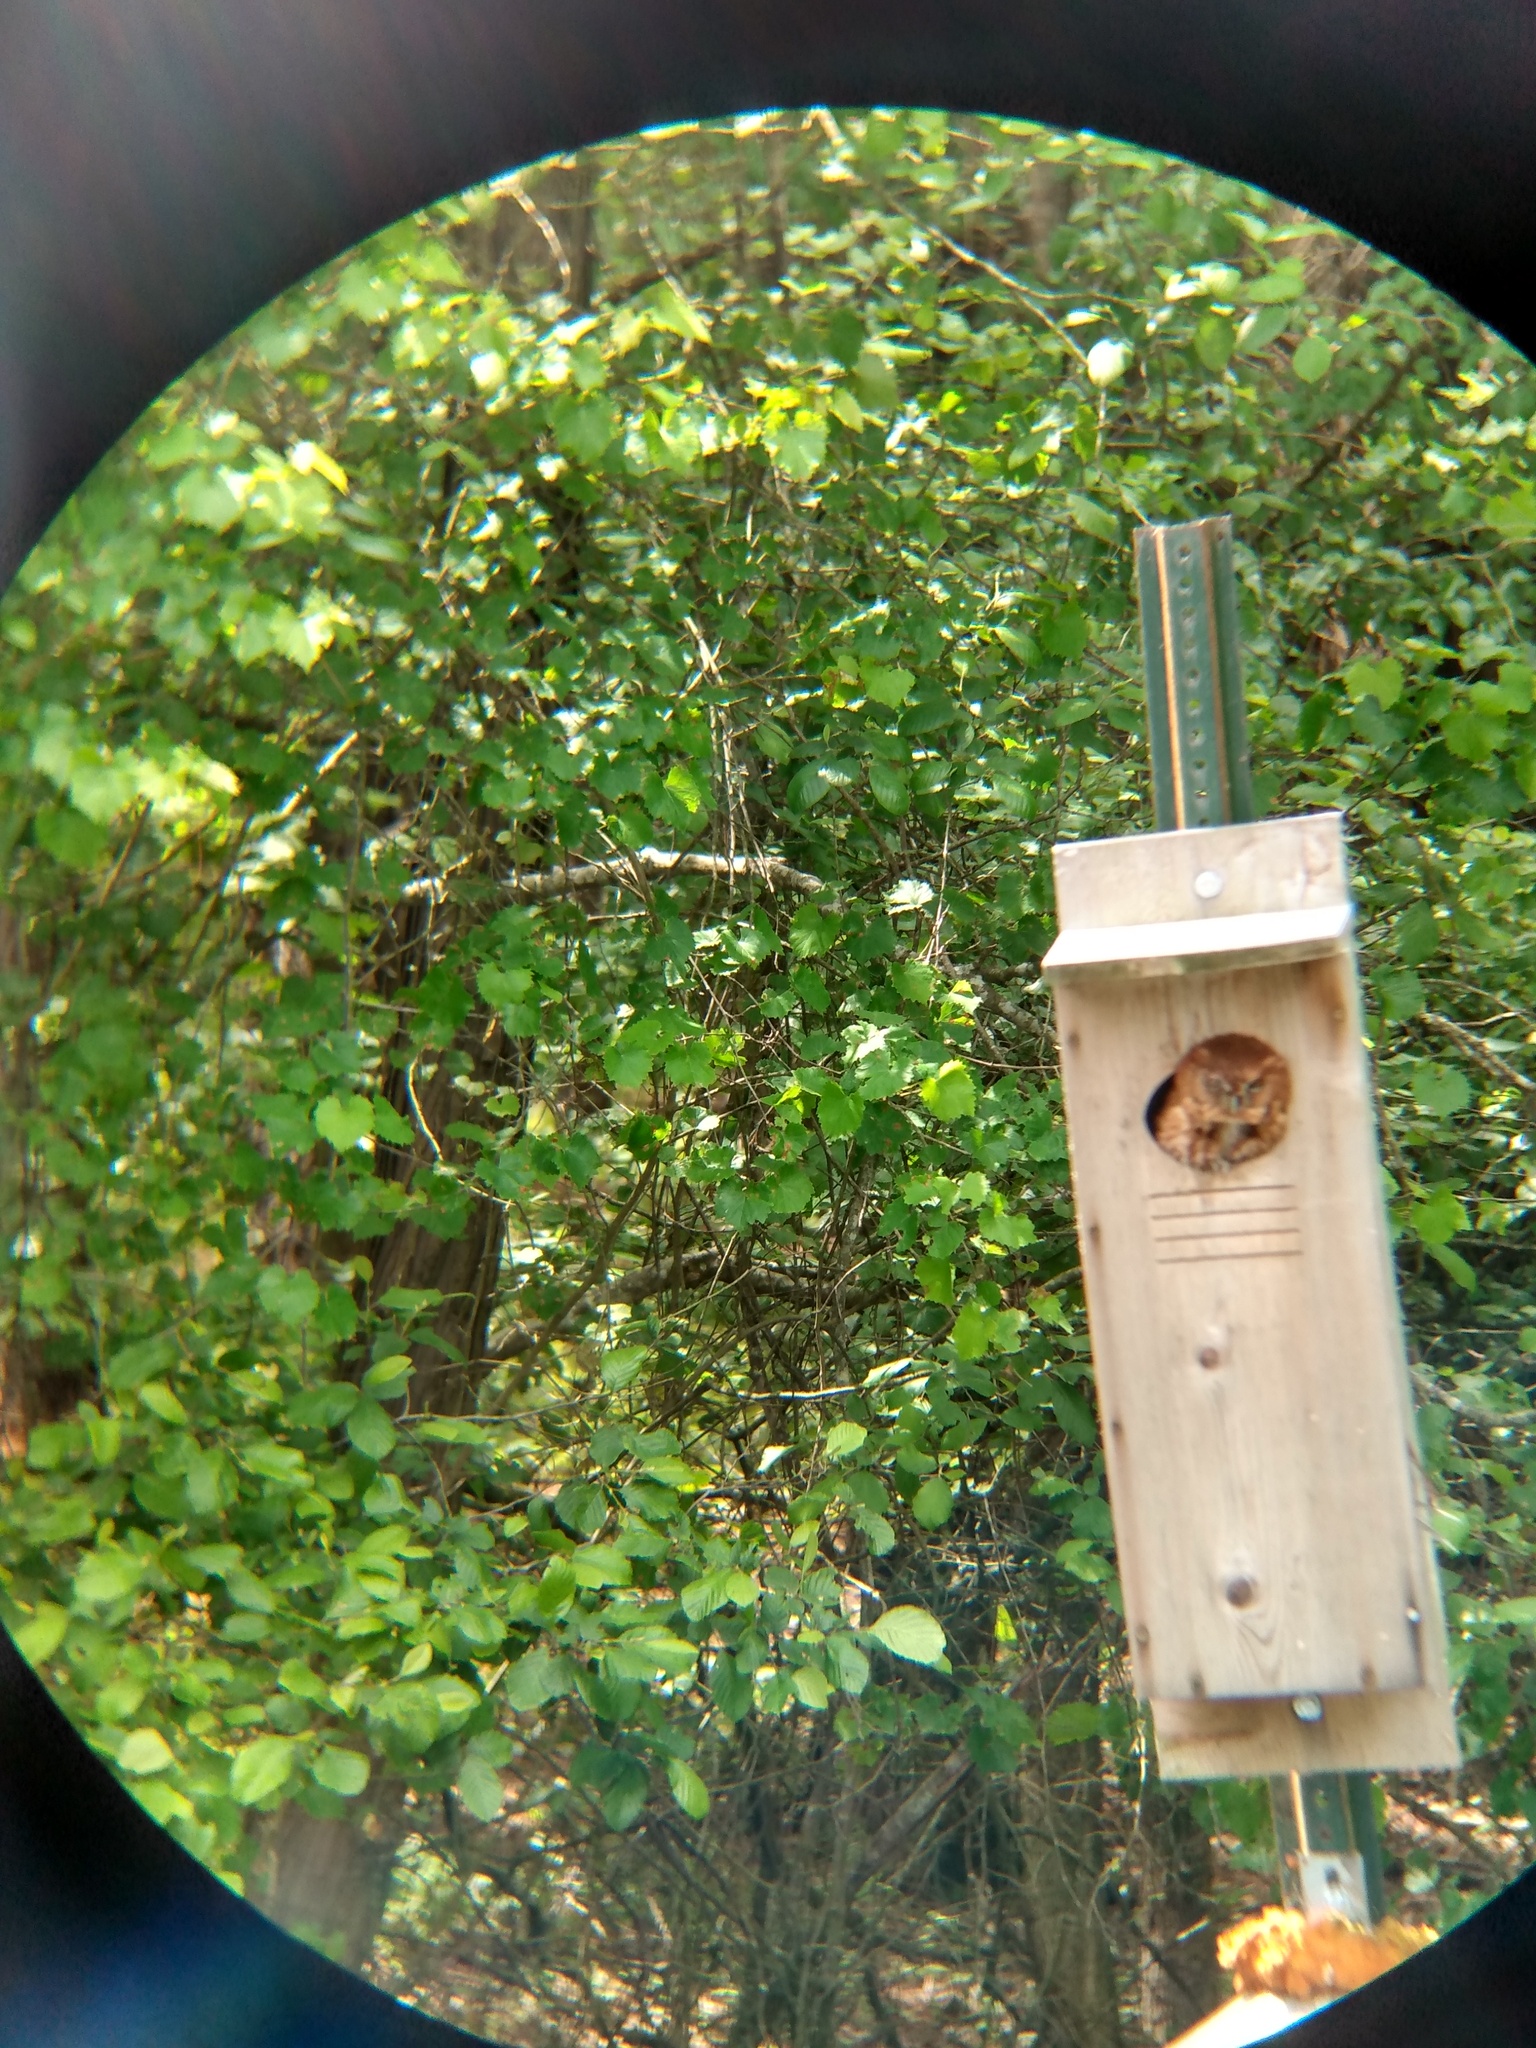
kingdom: Animalia
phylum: Chordata
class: Aves
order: Strigiformes
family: Strigidae
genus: Megascops
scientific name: Megascops asio
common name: Eastern screech-owl
